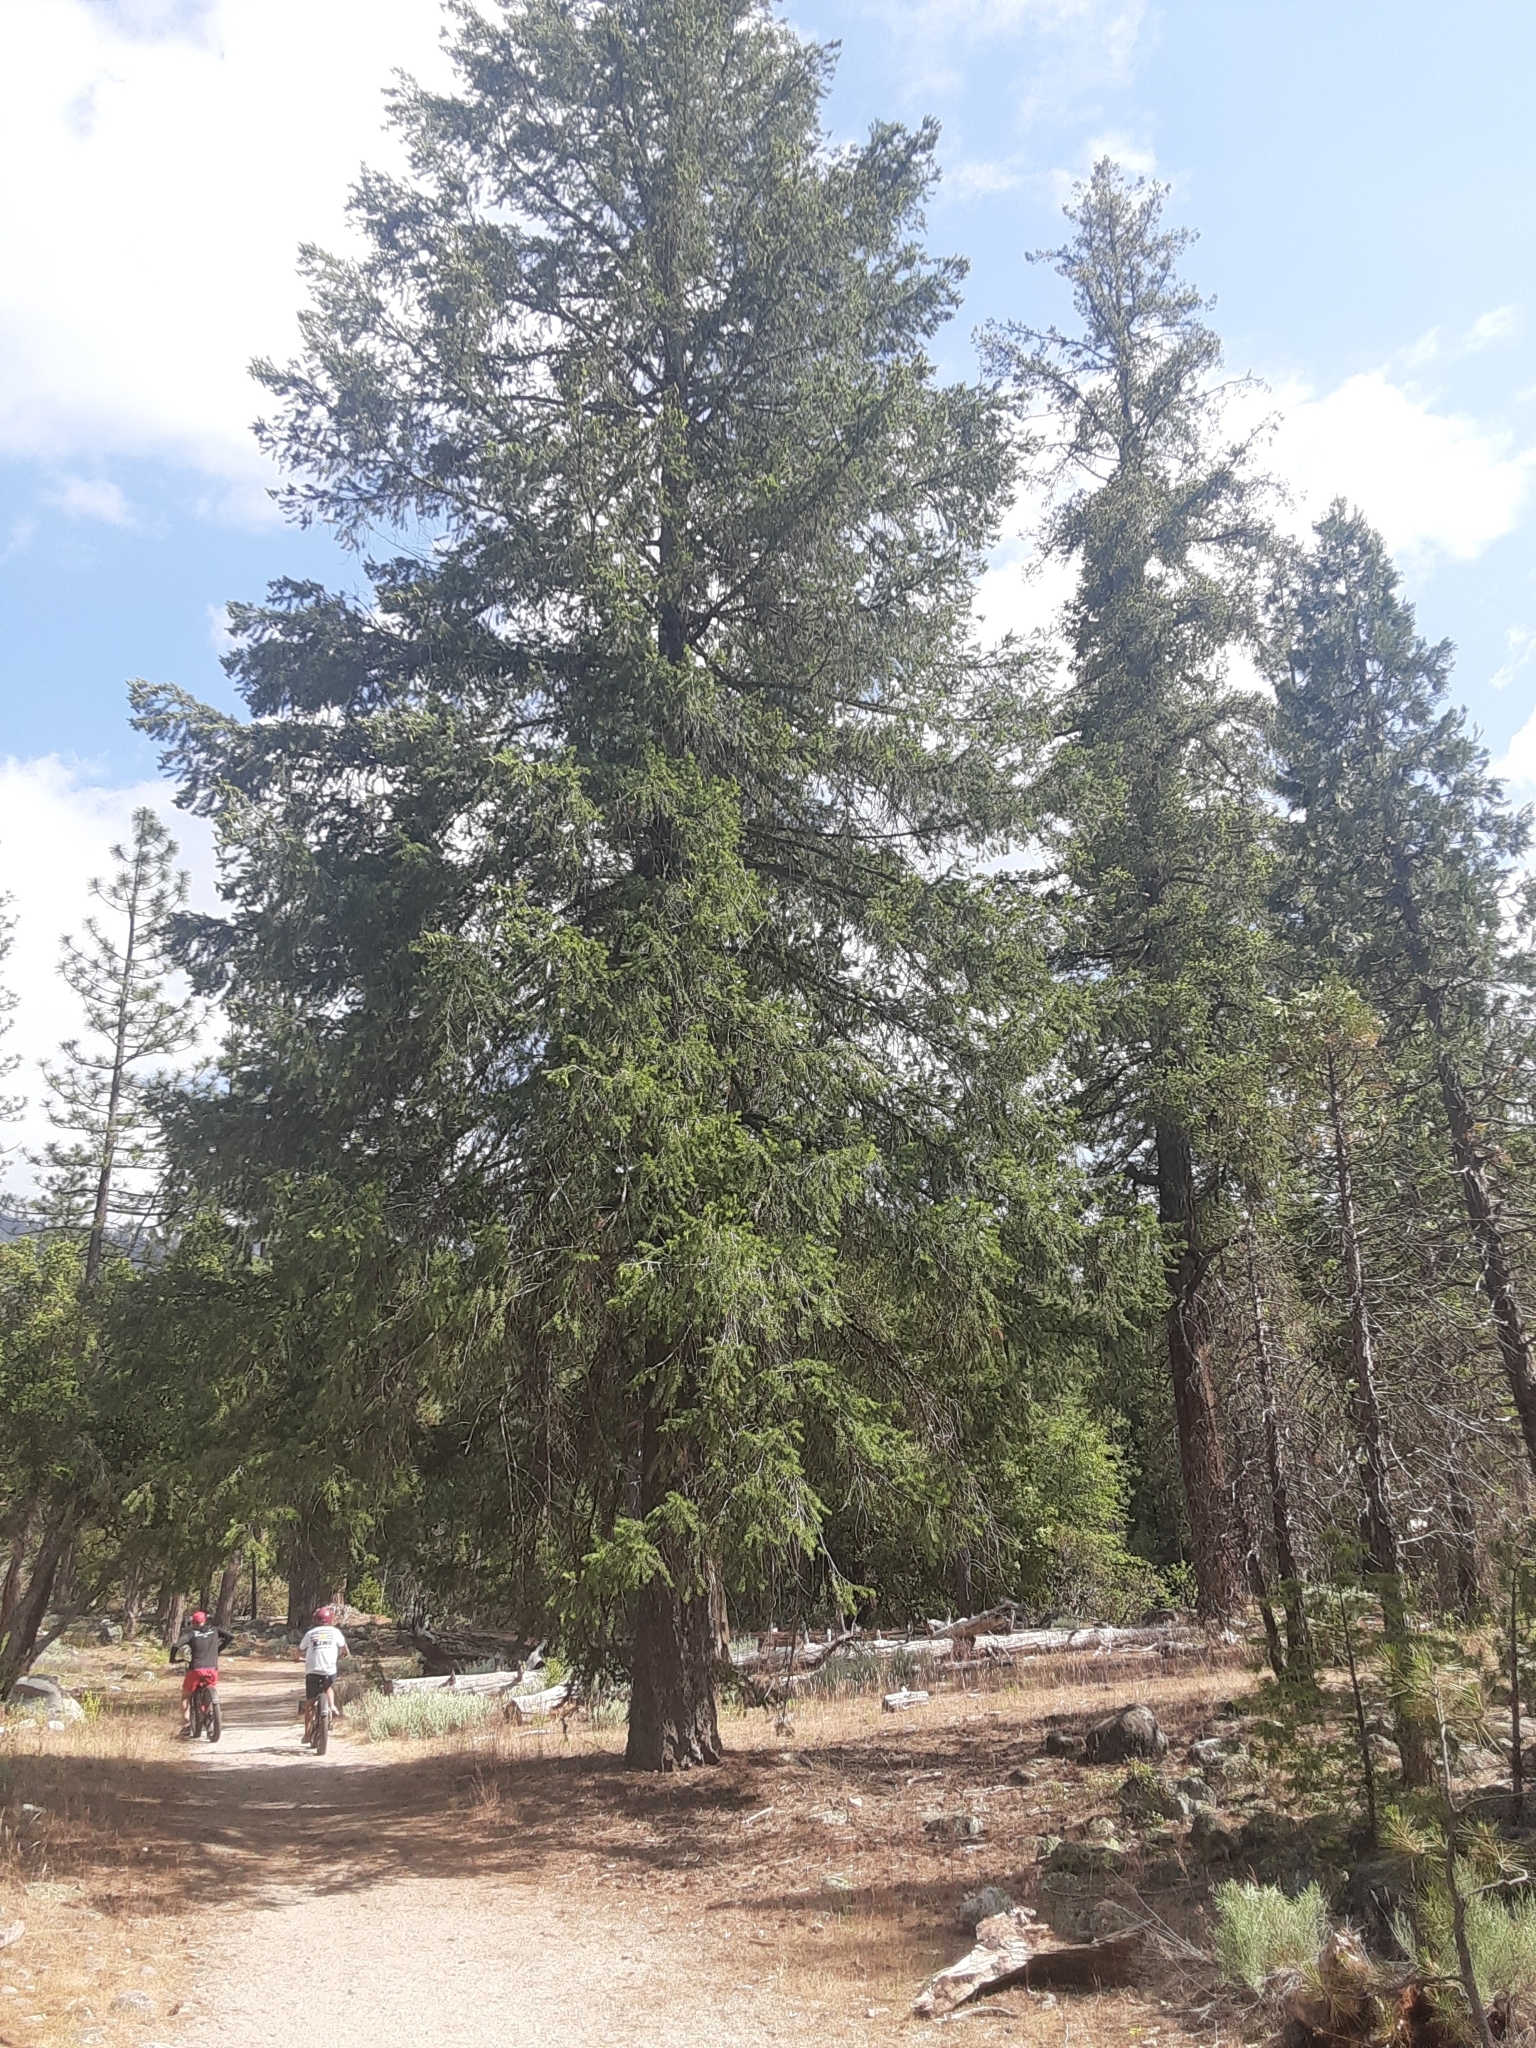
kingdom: Plantae
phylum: Tracheophyta
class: Pinopsida
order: Pinales
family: Pinaceae
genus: Pseudotsuga
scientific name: Pseudotsuga menziesii
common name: Douglas fir
